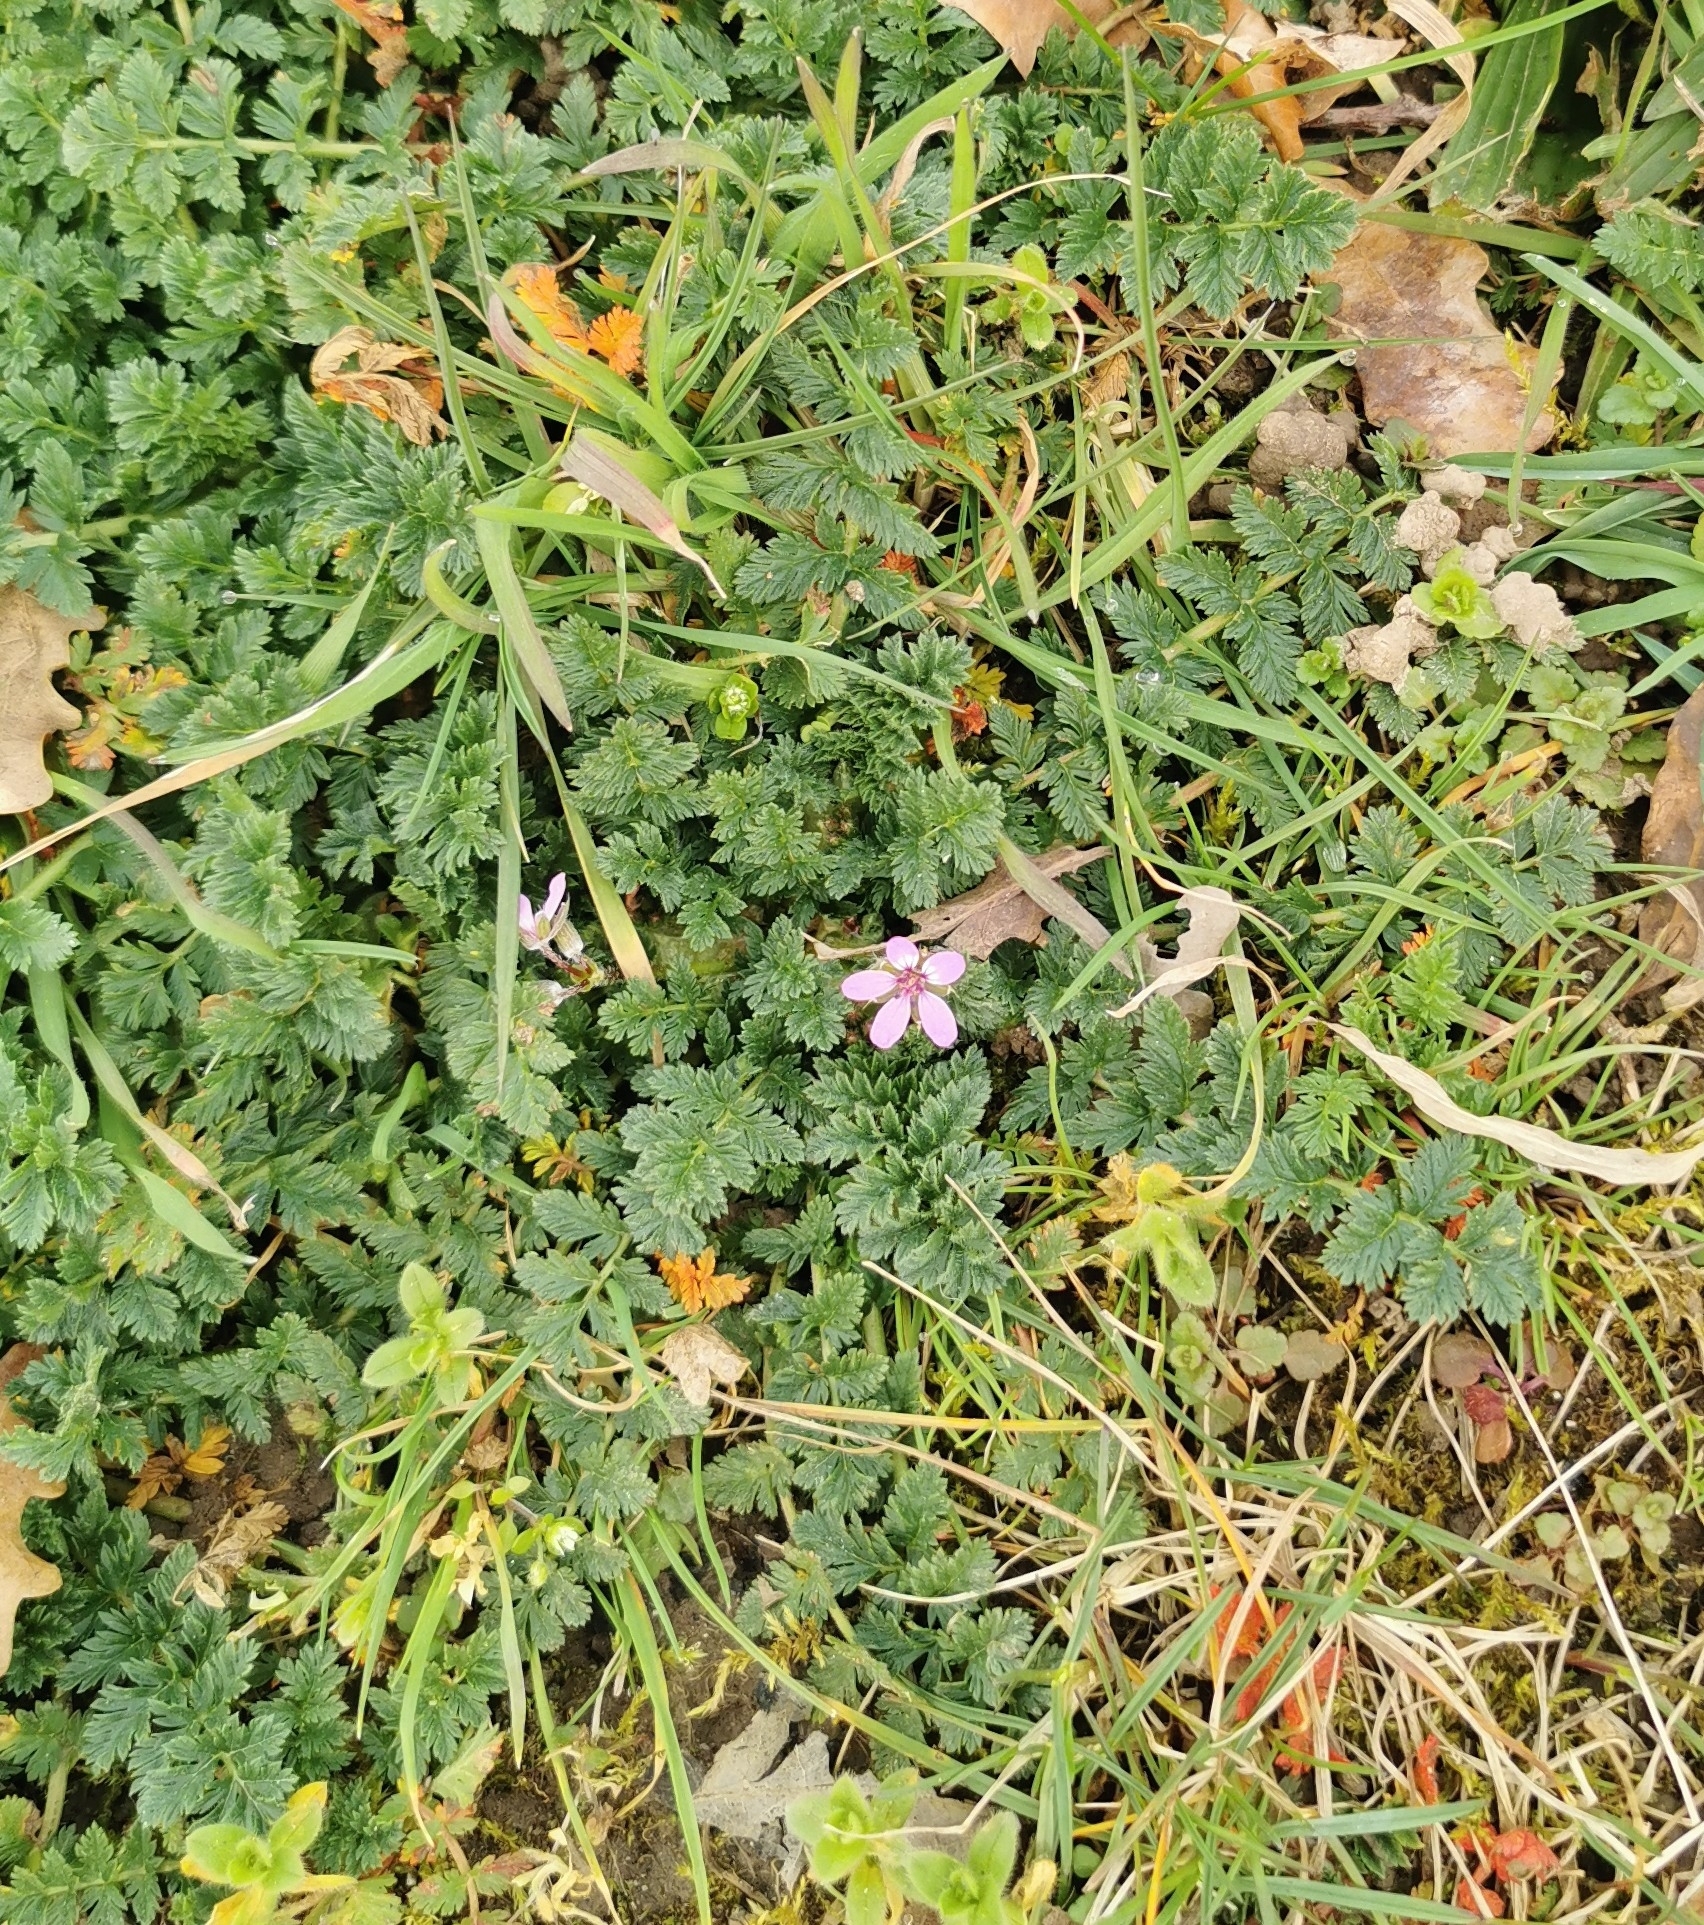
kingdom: Plantae
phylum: Tracheophyta
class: Magnoliopsida
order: Geraniales
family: Geraniaceae
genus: Erodium
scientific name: Erodium cicutarium
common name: Common stork's-bill
